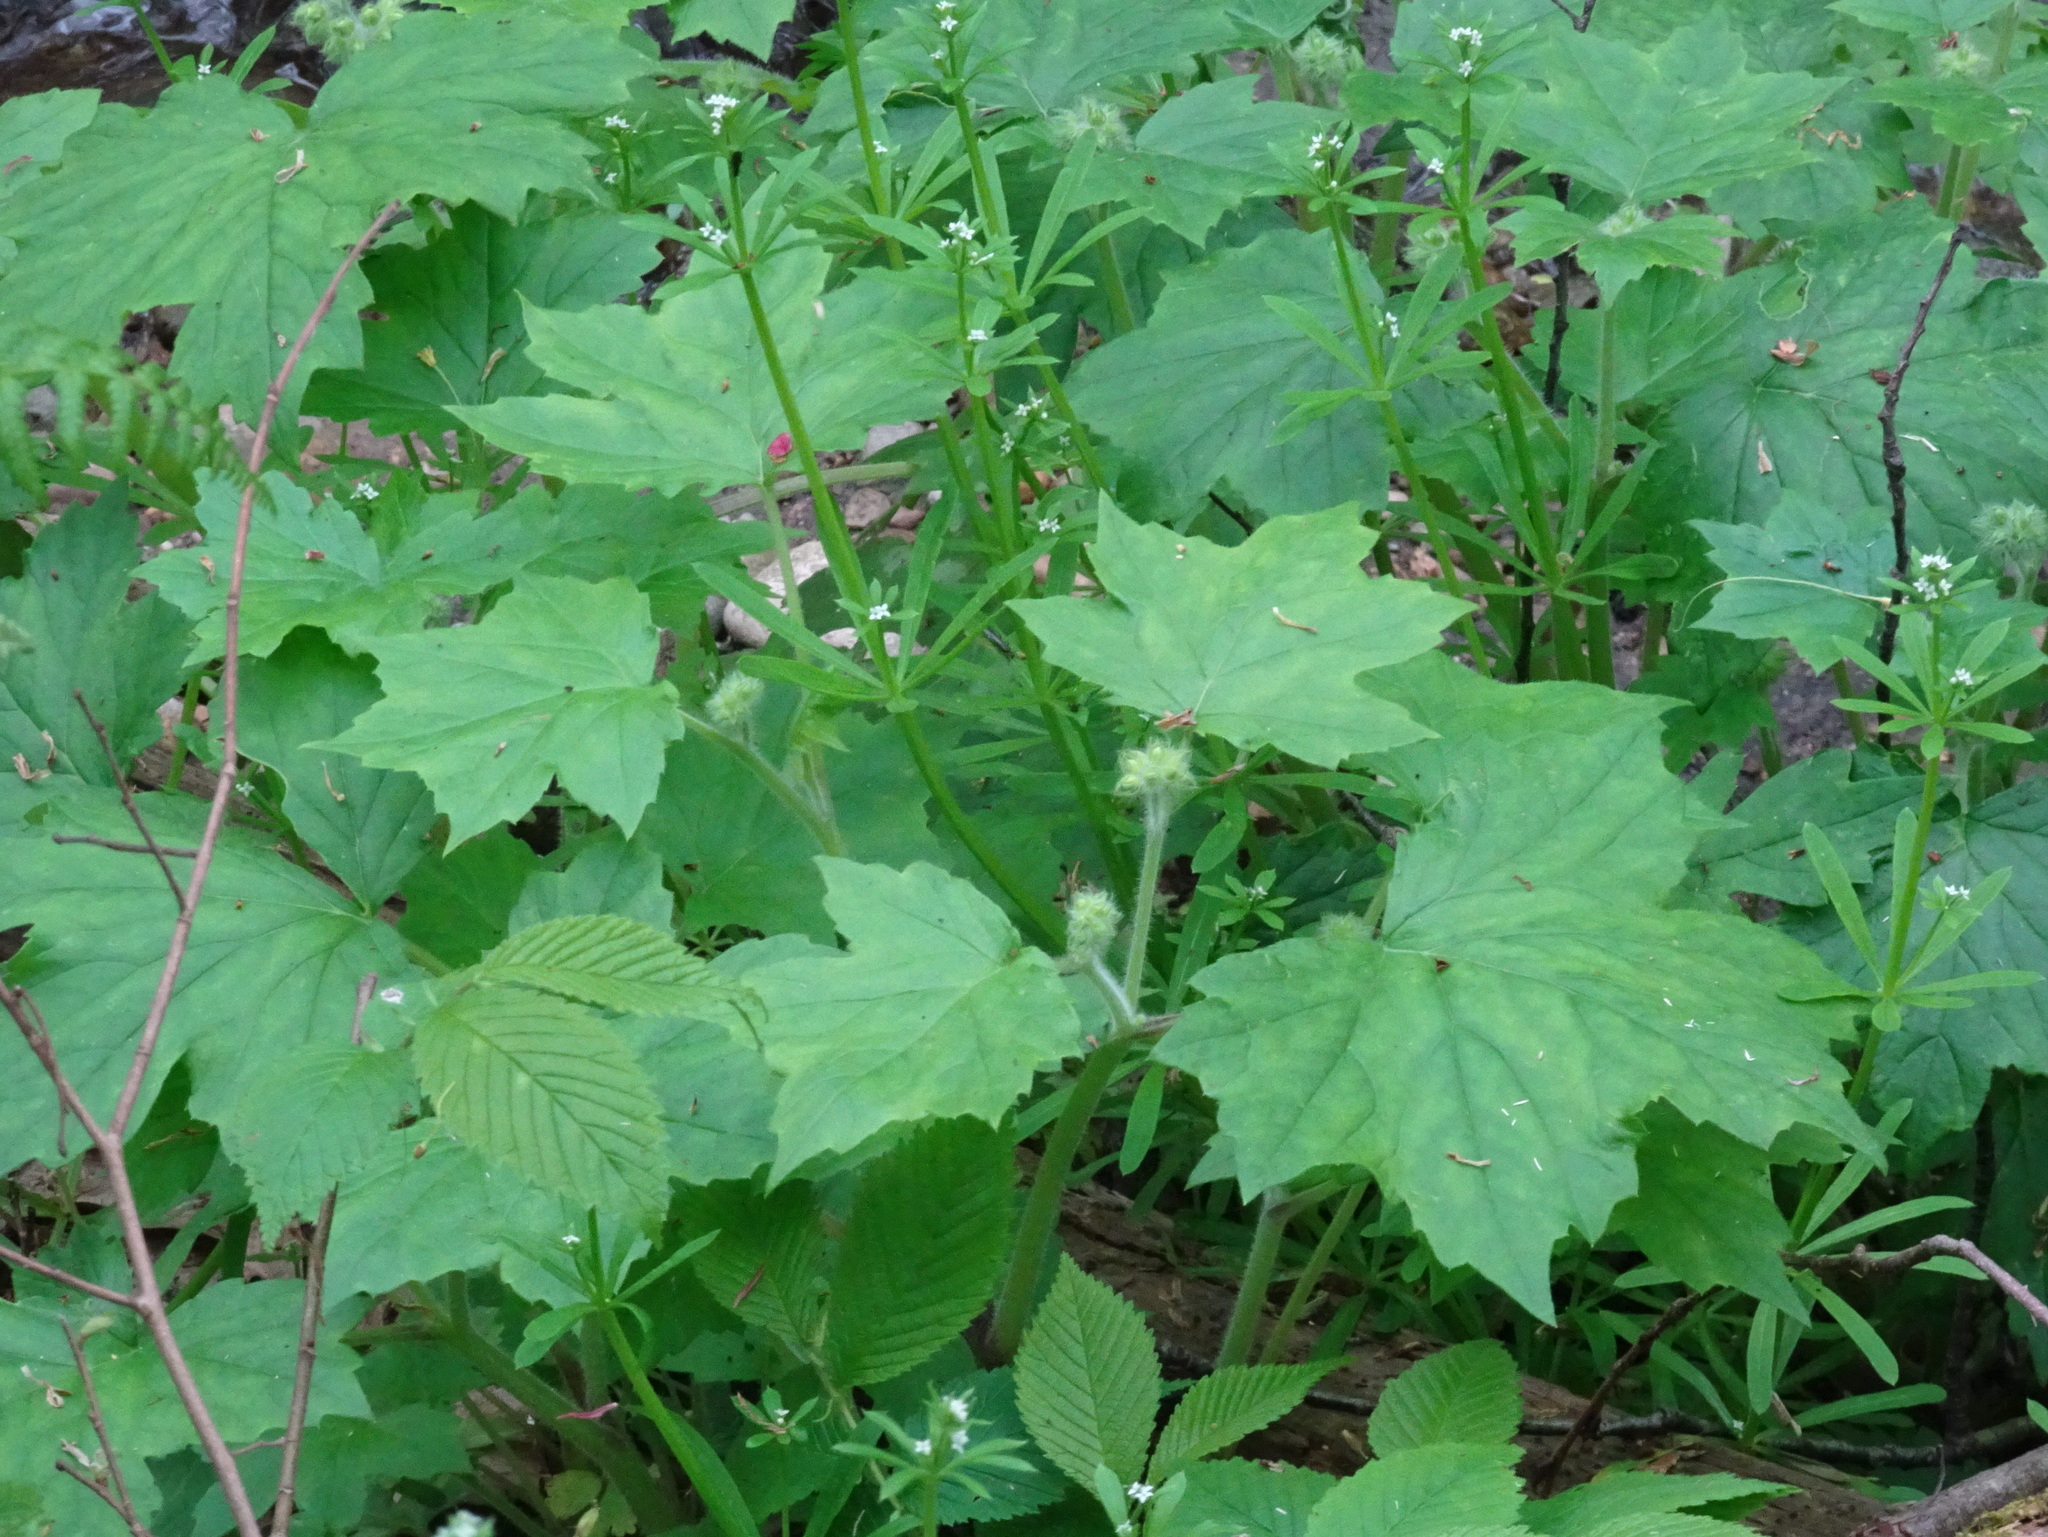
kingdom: Plantae
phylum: Tracheophyta
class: Magnoliopsida
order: Boraginales
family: Hydrophyllaceae
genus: Hydrophyllum
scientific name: Hydrophyllum appendiculatum
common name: Appendaged waterleaf
